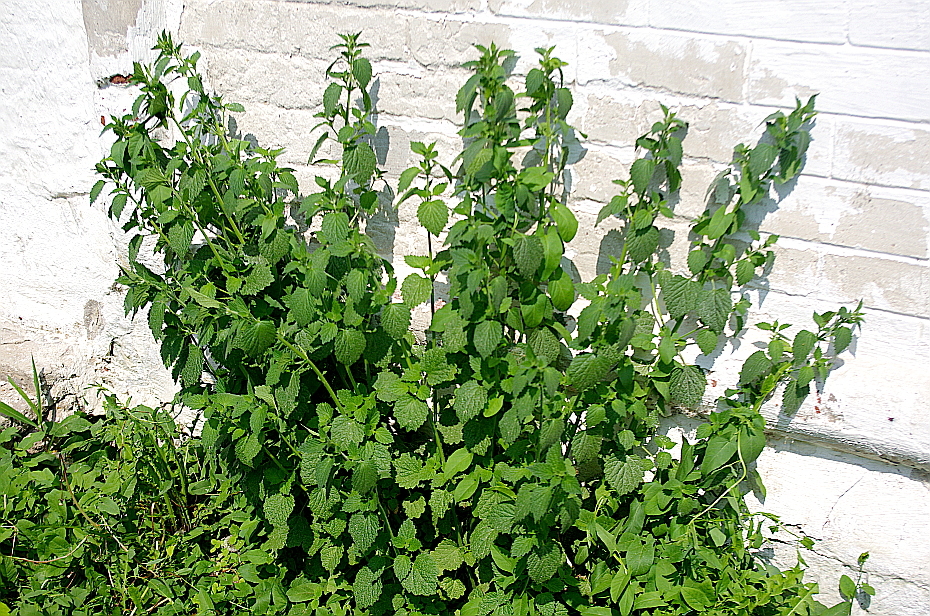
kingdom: Plantae
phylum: Tracheophyta
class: Magnoliopsida
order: Lamiales
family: Lamiaceae
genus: Ballota
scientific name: Ballota nigra
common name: Black horehound
